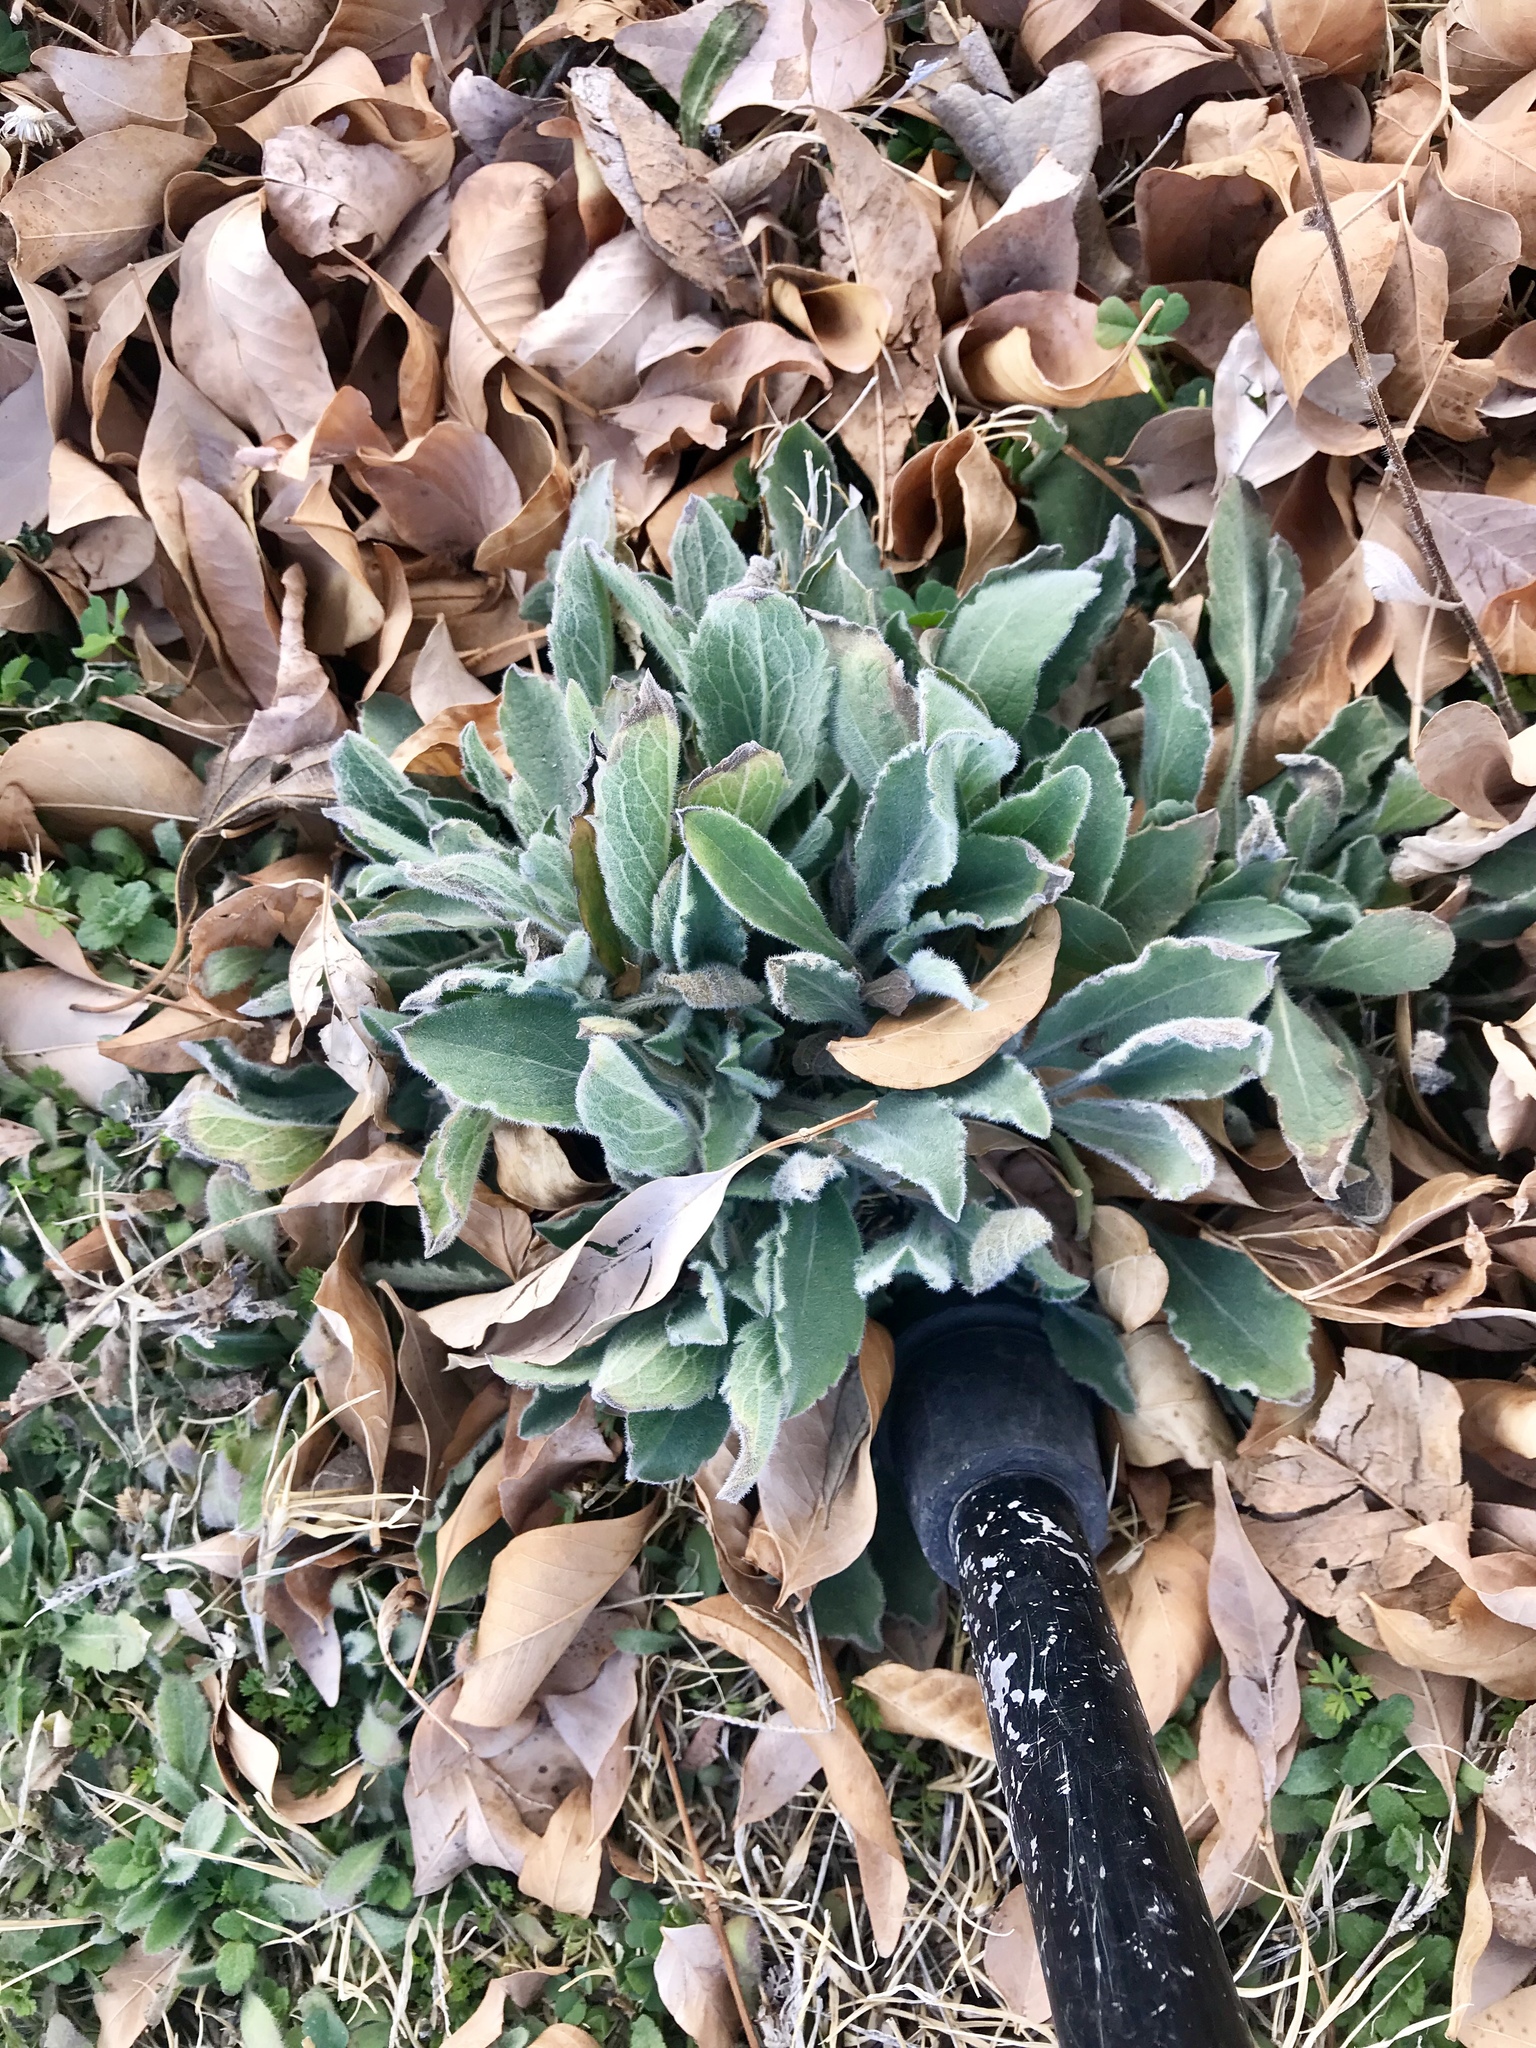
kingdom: Plantae
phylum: Tracheophyta
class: Magnoliopsida
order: Lamiales
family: Lamiaceae
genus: Stachys
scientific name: Stachys byzantina
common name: Lamb's-ear
